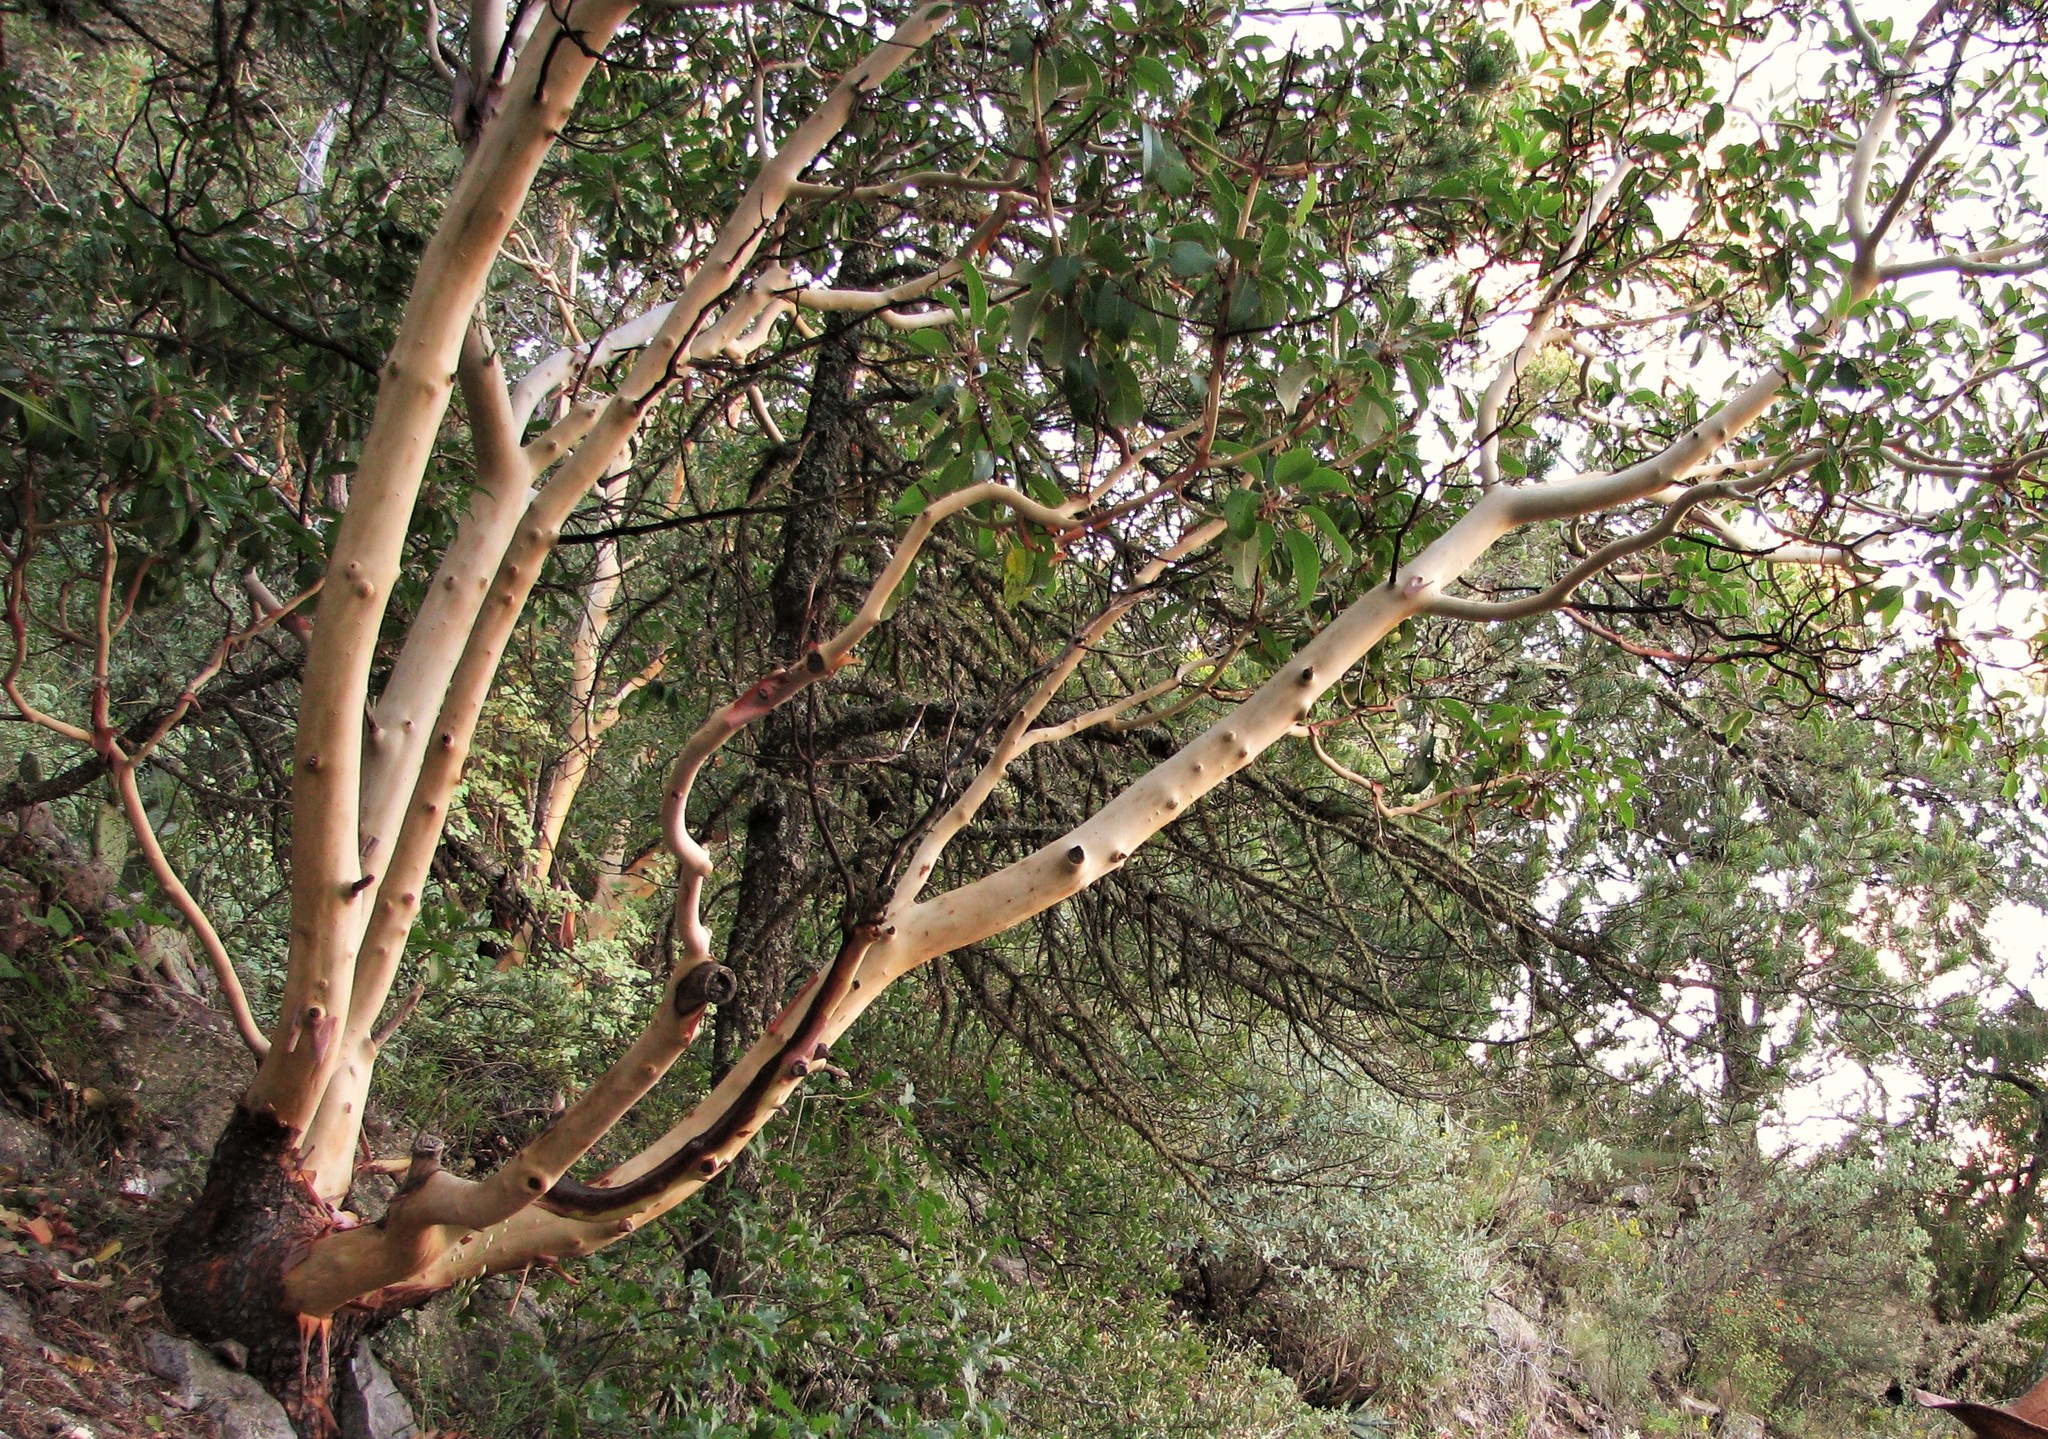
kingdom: Plantae
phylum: Tracheophyta
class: Magnoliopsida
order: Ericales
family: Ericaceae
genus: Arbutus
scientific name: Arbutus xalapensis
